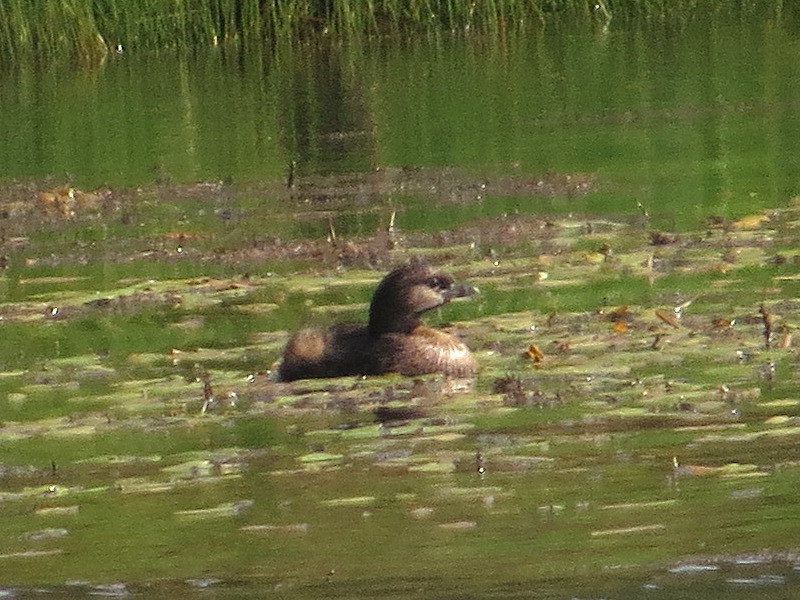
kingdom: Animalia
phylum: Chordata
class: Aves
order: Podicipediformes
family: Podicipedidae
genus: Podilymbus
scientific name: Podilymbus podiceps
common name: Pied-billed grebe
